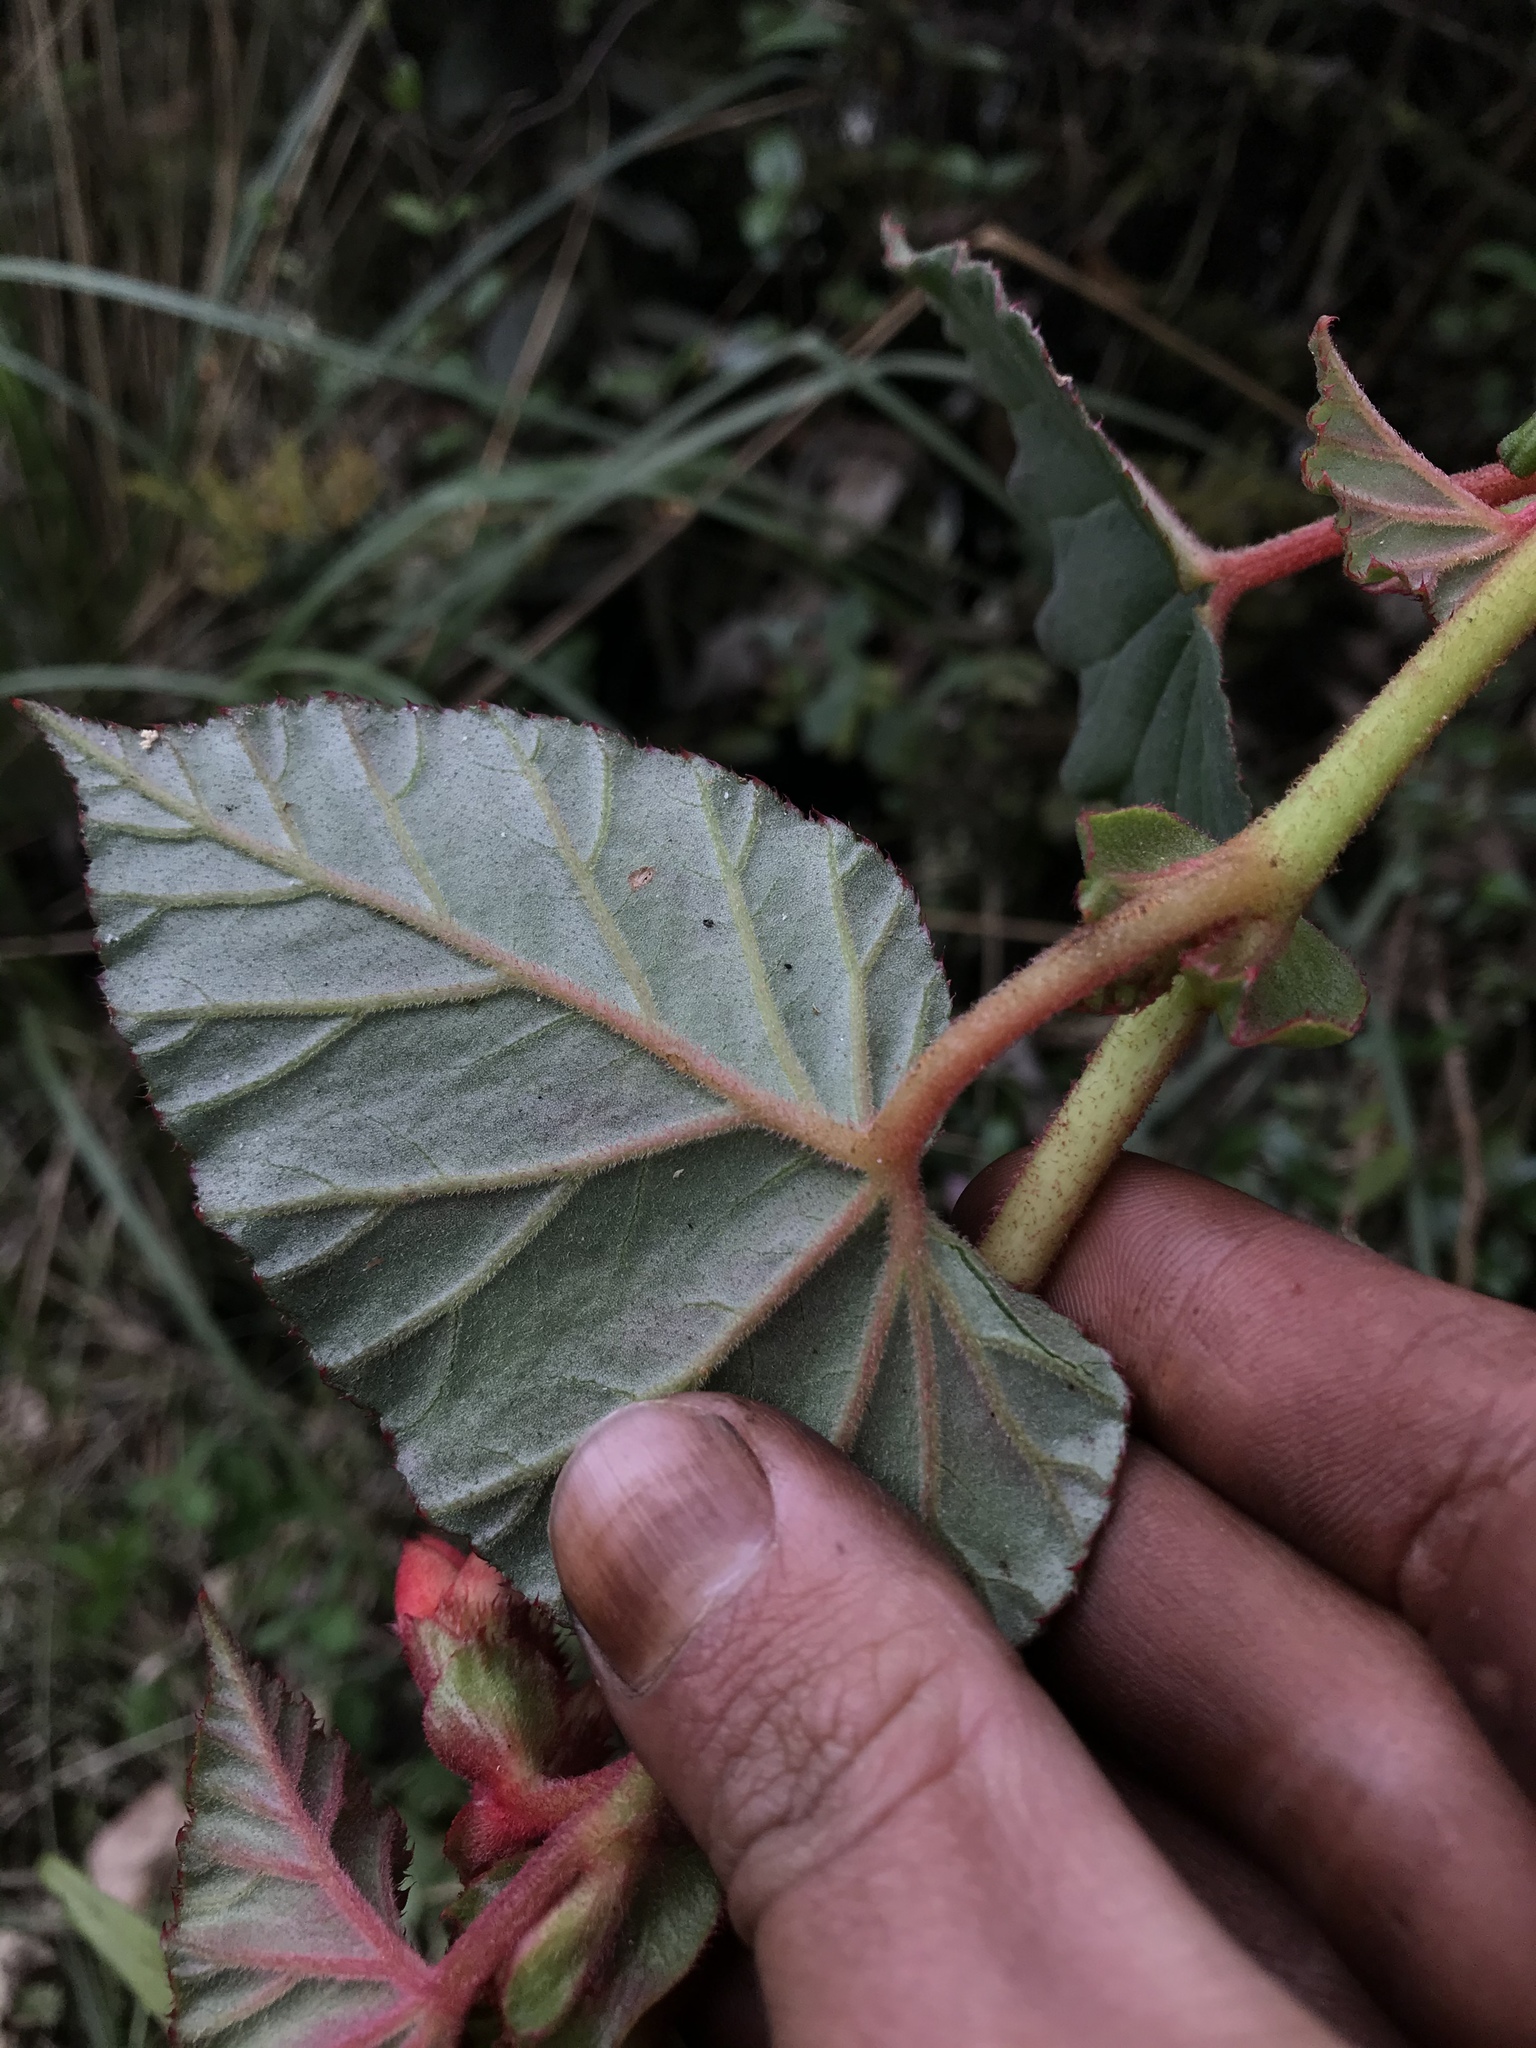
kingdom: Plantae
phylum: Tracheophyta
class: Magnoliopsida
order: Cucurbitales
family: Begoniaceae
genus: Begonia
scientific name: Begonia ferruginea
